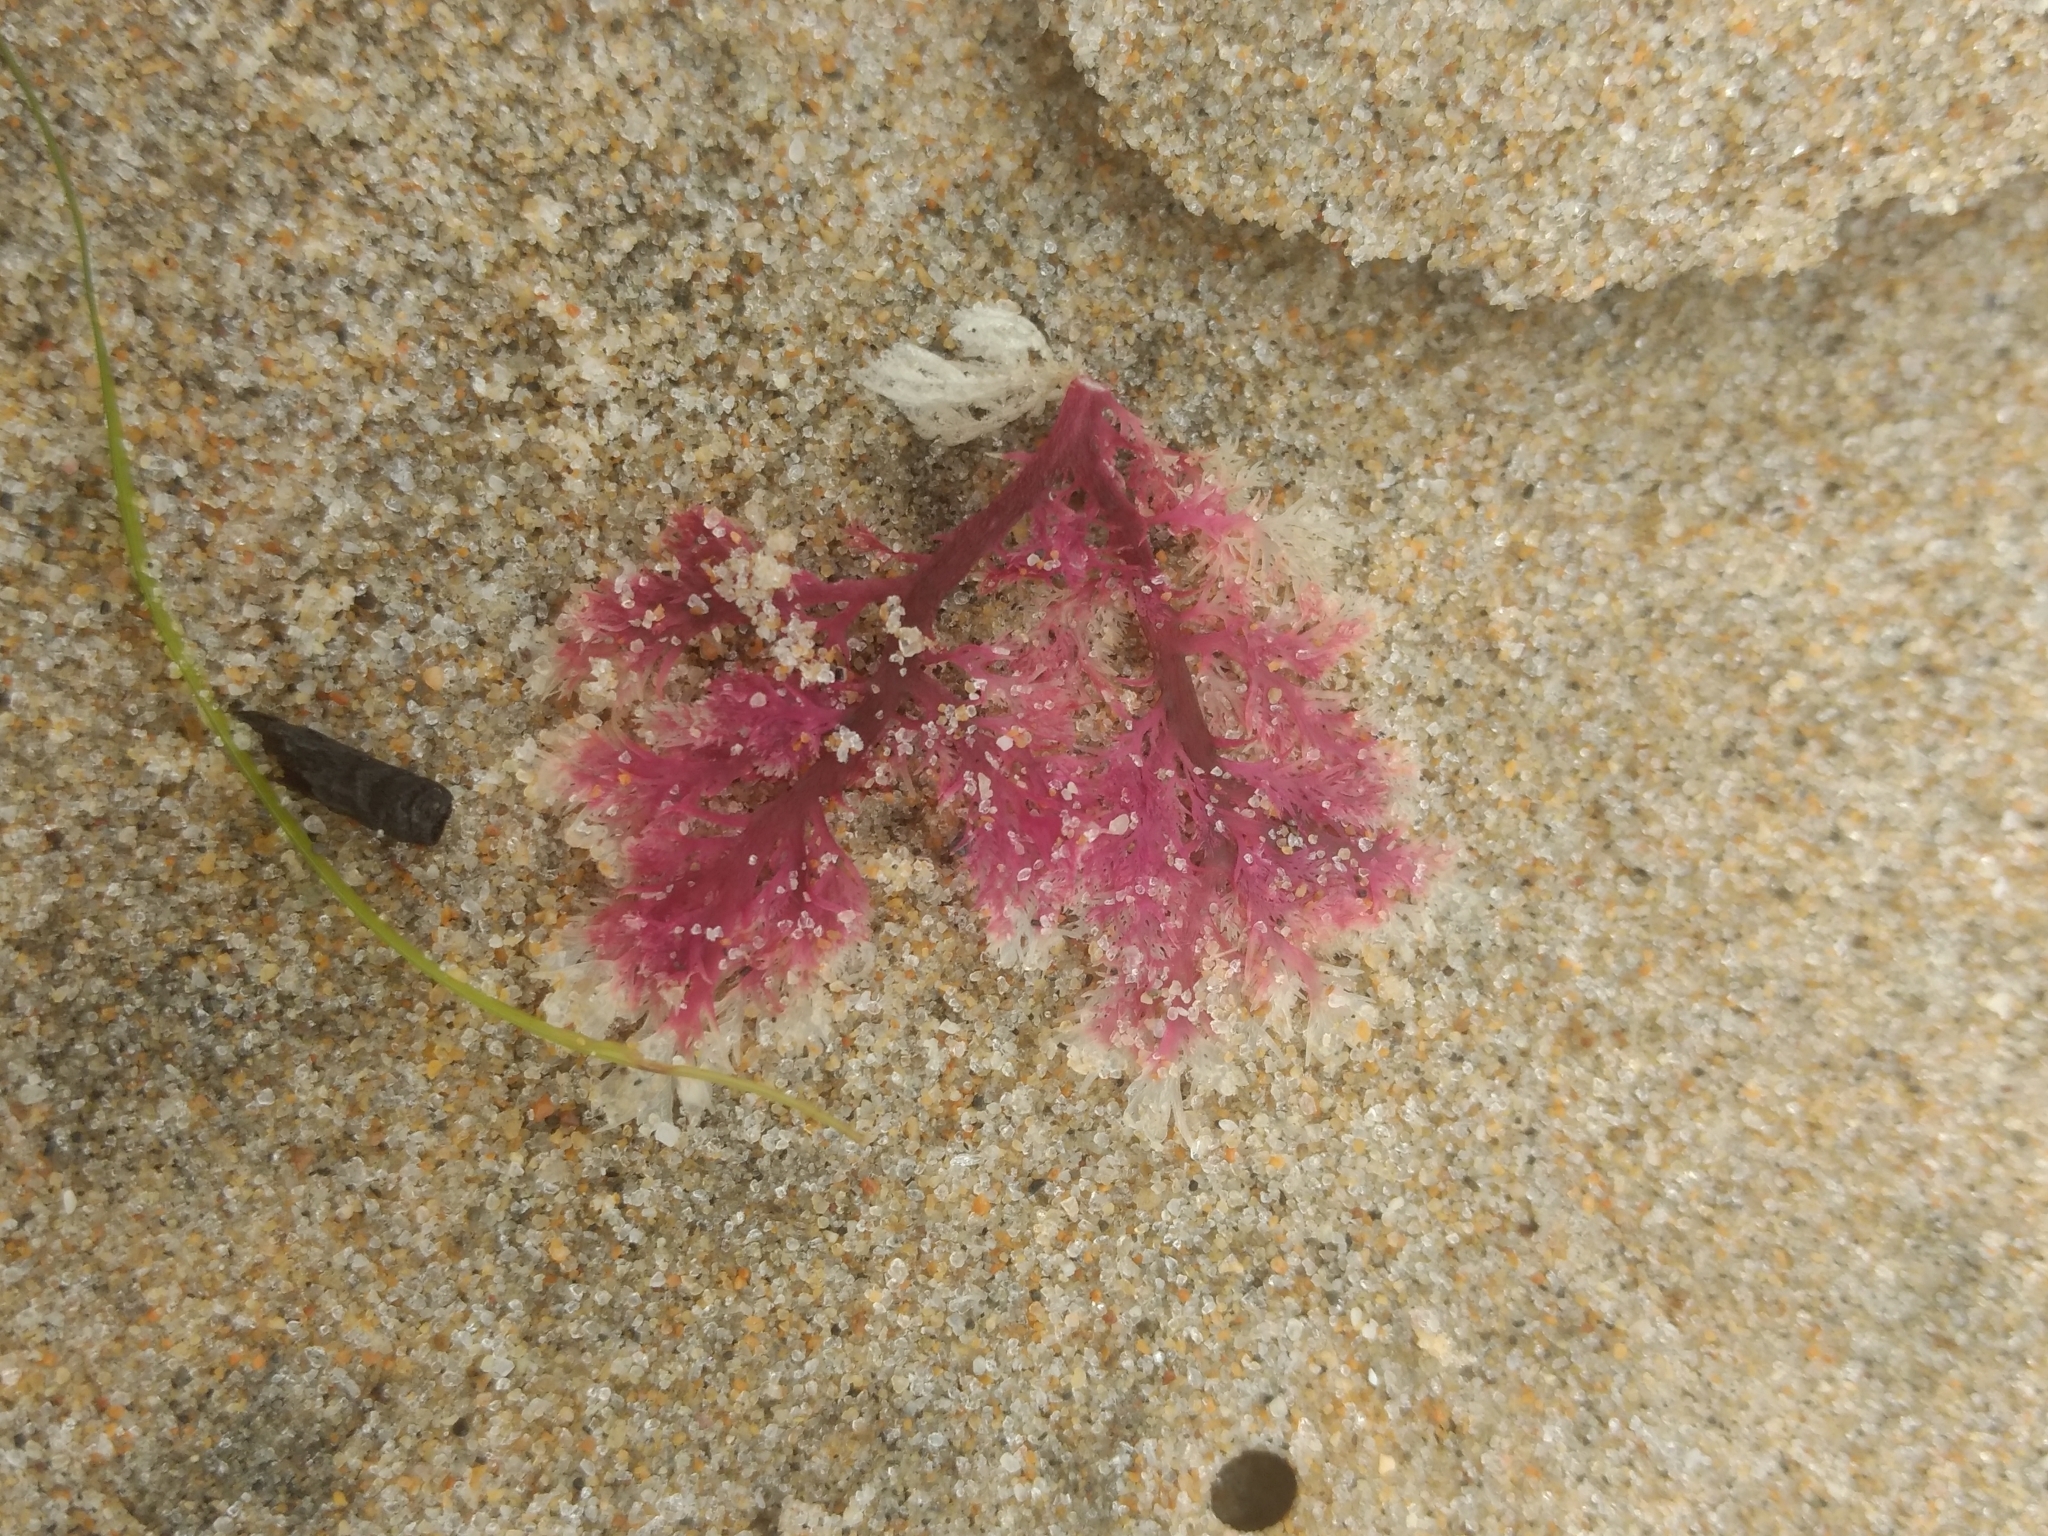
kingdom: Plantae
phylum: Rhodophyta
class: Florideophyceae
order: Plocamiales
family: Plocamiaceae
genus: Plocamium
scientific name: Plocamium cartilagineum
